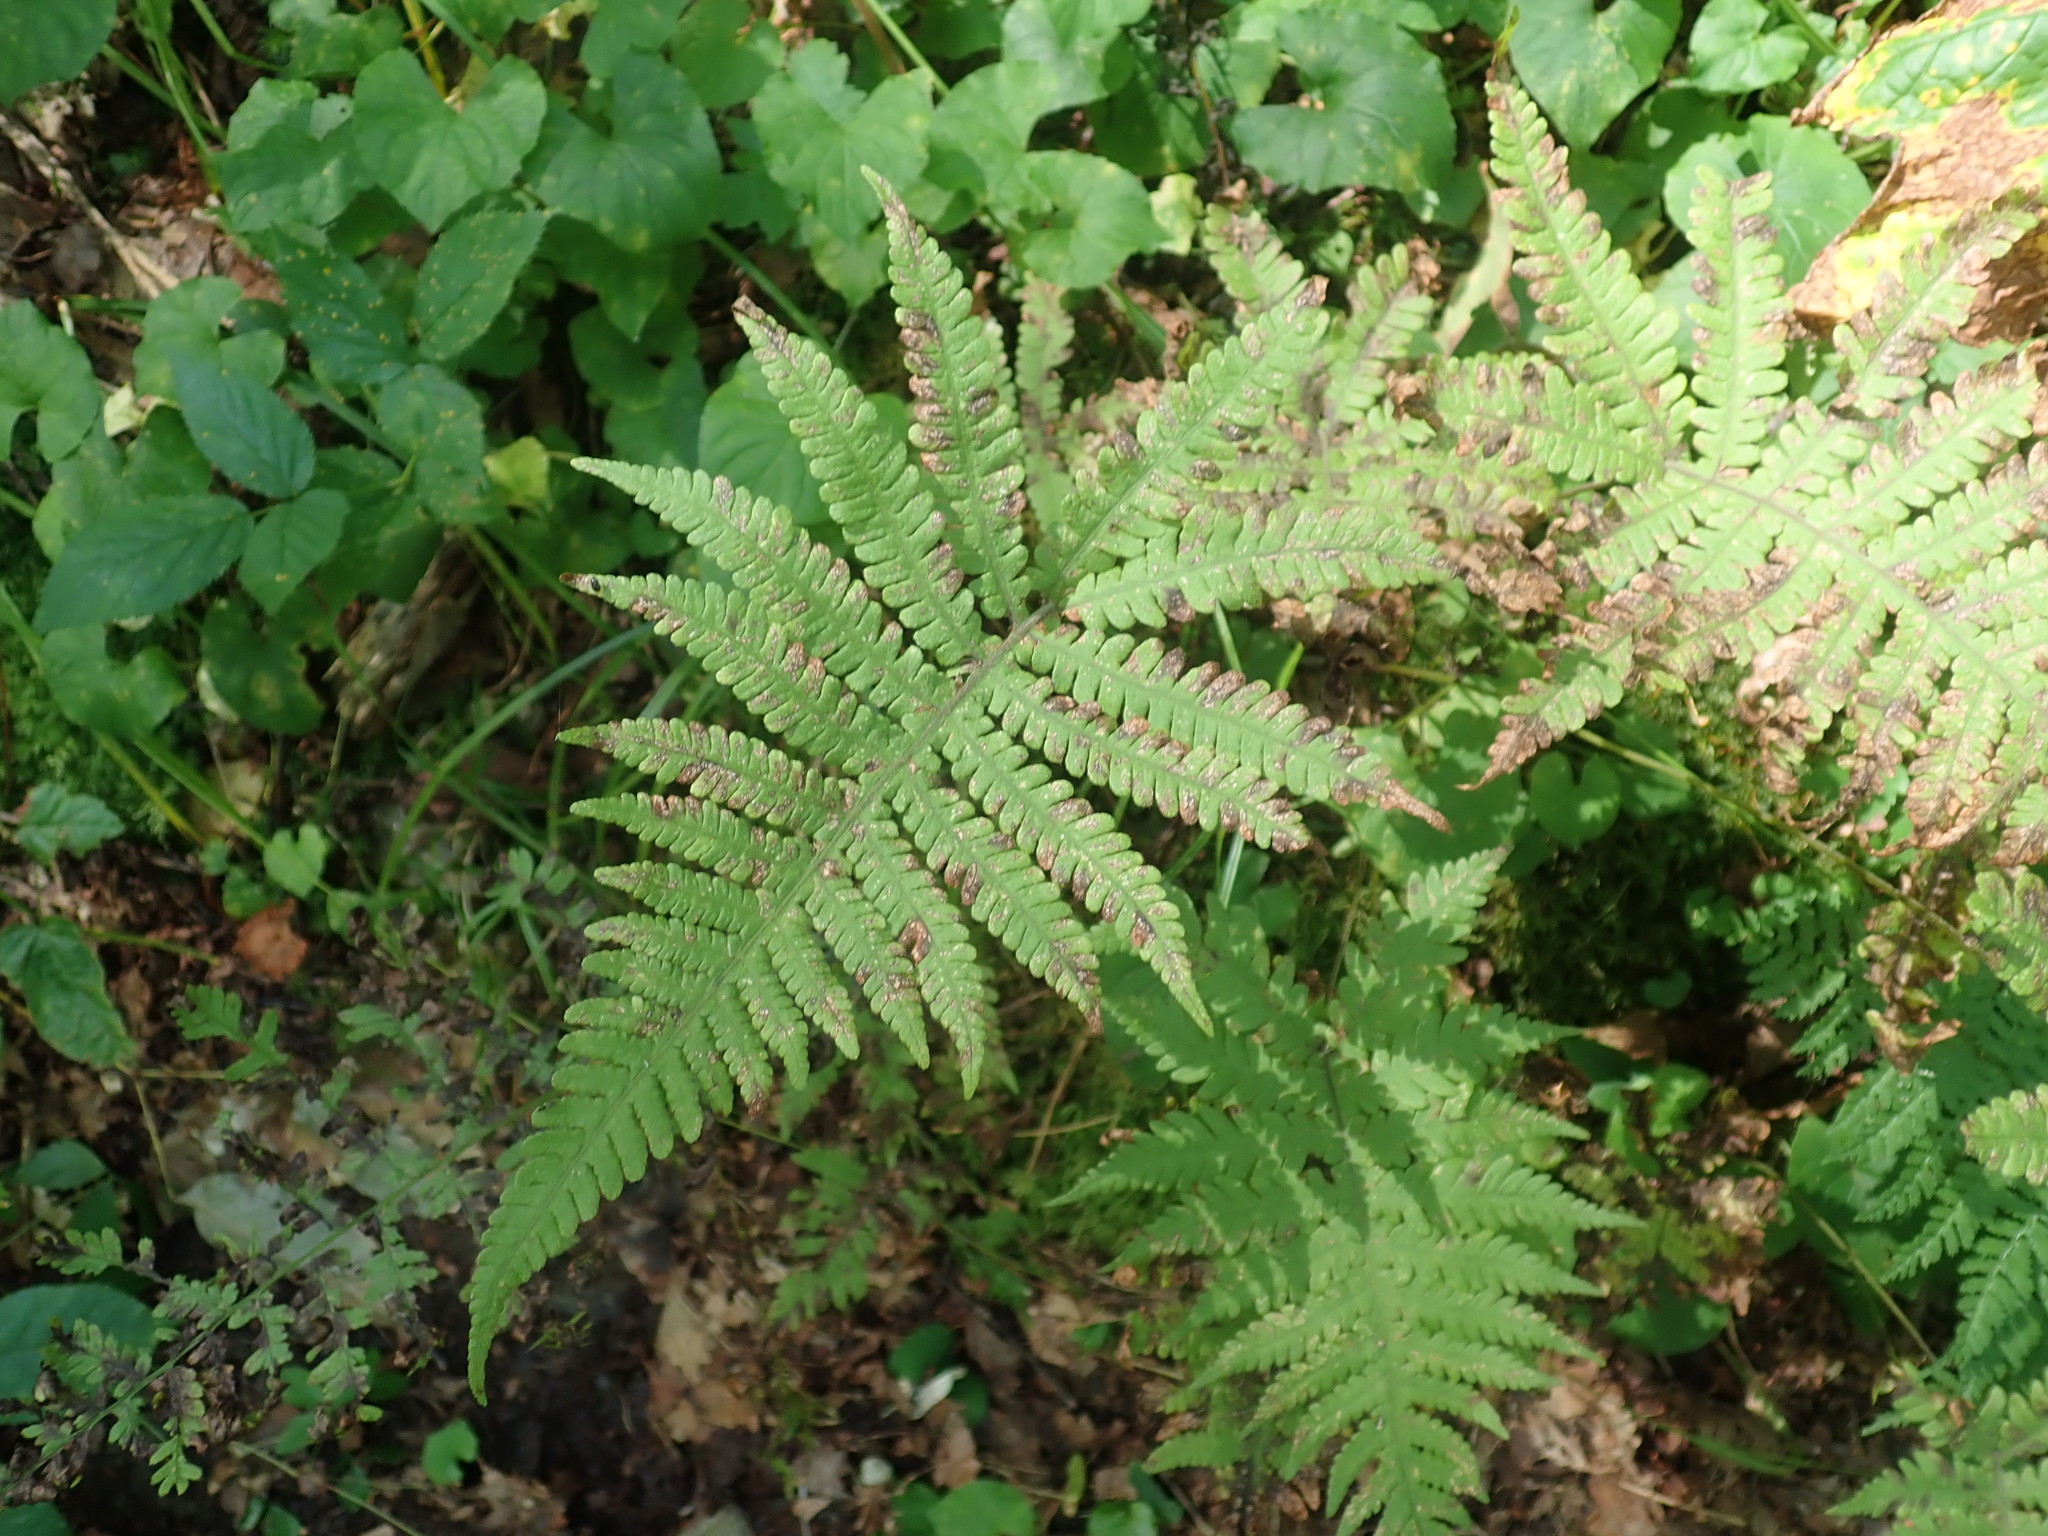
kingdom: Plantae
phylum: Tracheophyta
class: Polypodiopsida
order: Polypodiales
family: Thelypteridaceae
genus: Phegopteris
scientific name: Phegopteris connectilis
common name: Beech fern
